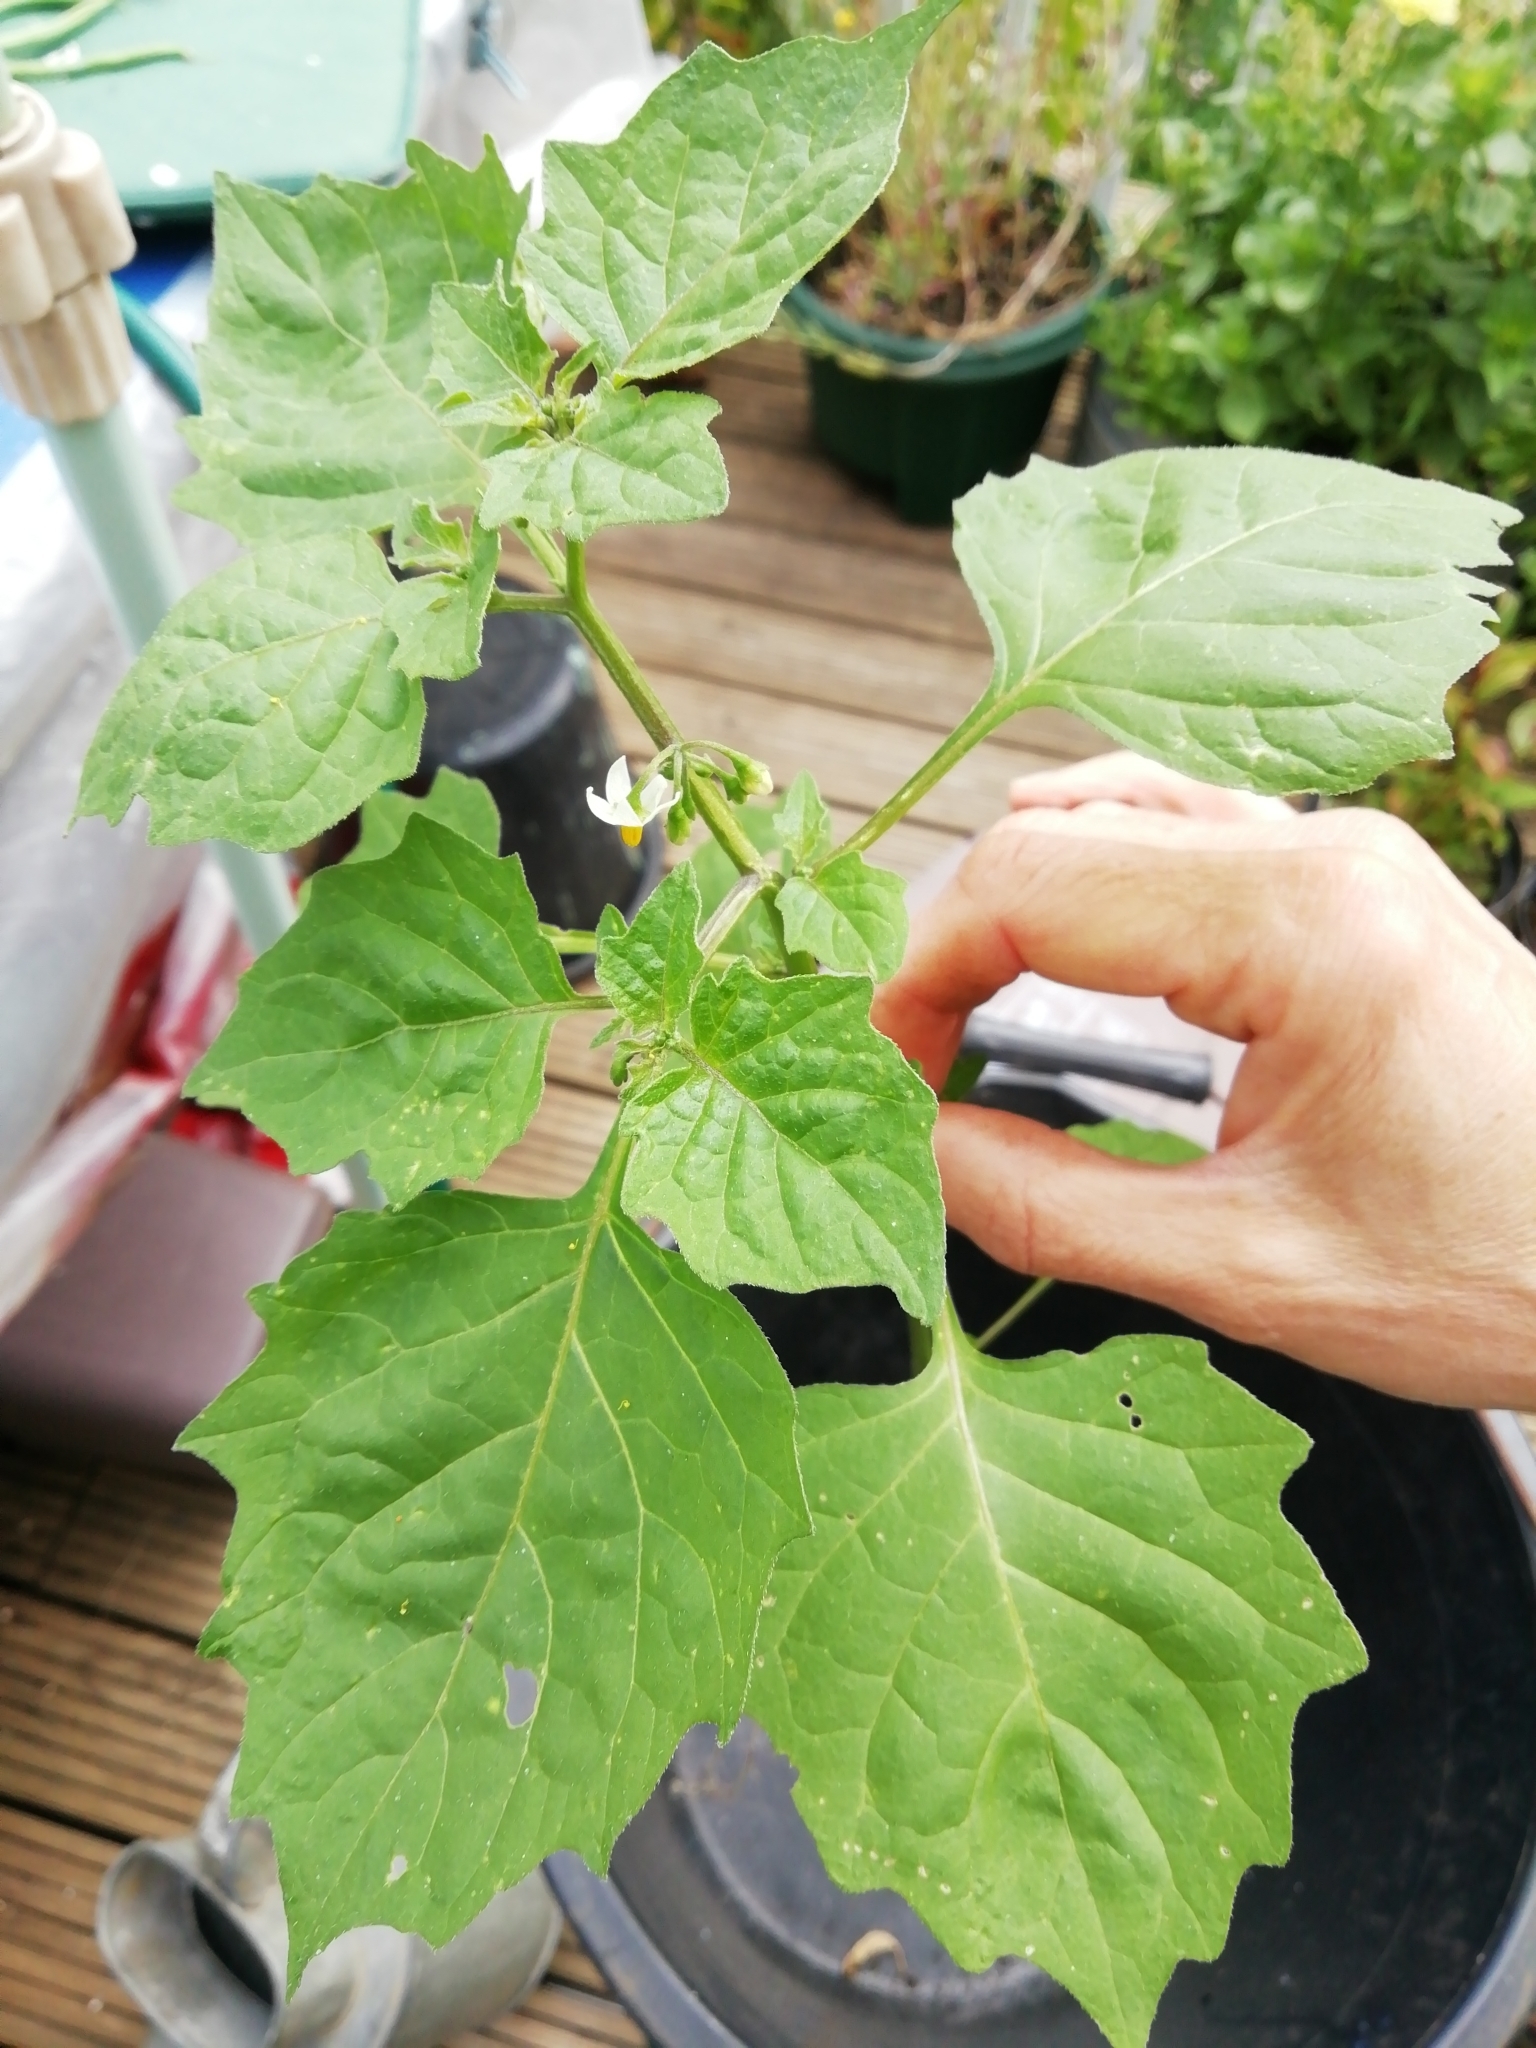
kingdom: Plantae
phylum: Tracheophyta
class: Magnoliopsida
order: Solanales
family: Solanaceae
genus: Solanum
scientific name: Solanum nigrum
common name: Black nightshade
